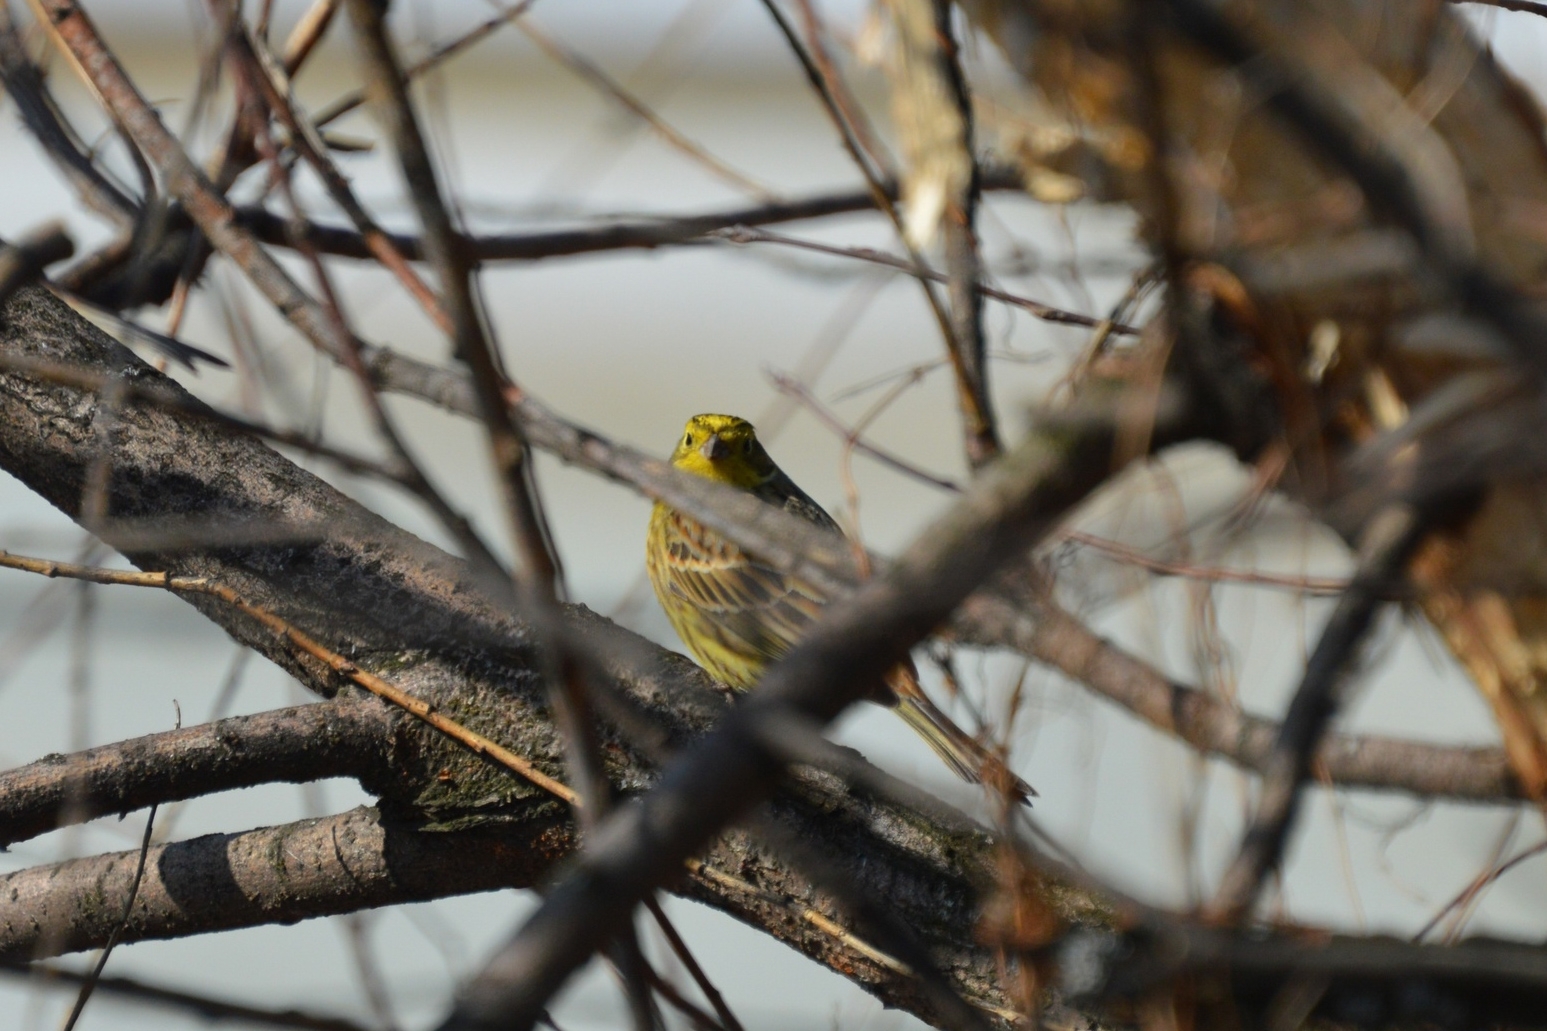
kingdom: Animalia
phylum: Chordata
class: Aves
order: Passeriformes
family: Emberizidae
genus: Emberiza
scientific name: Emberiza citrinella
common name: Yellowhammer
